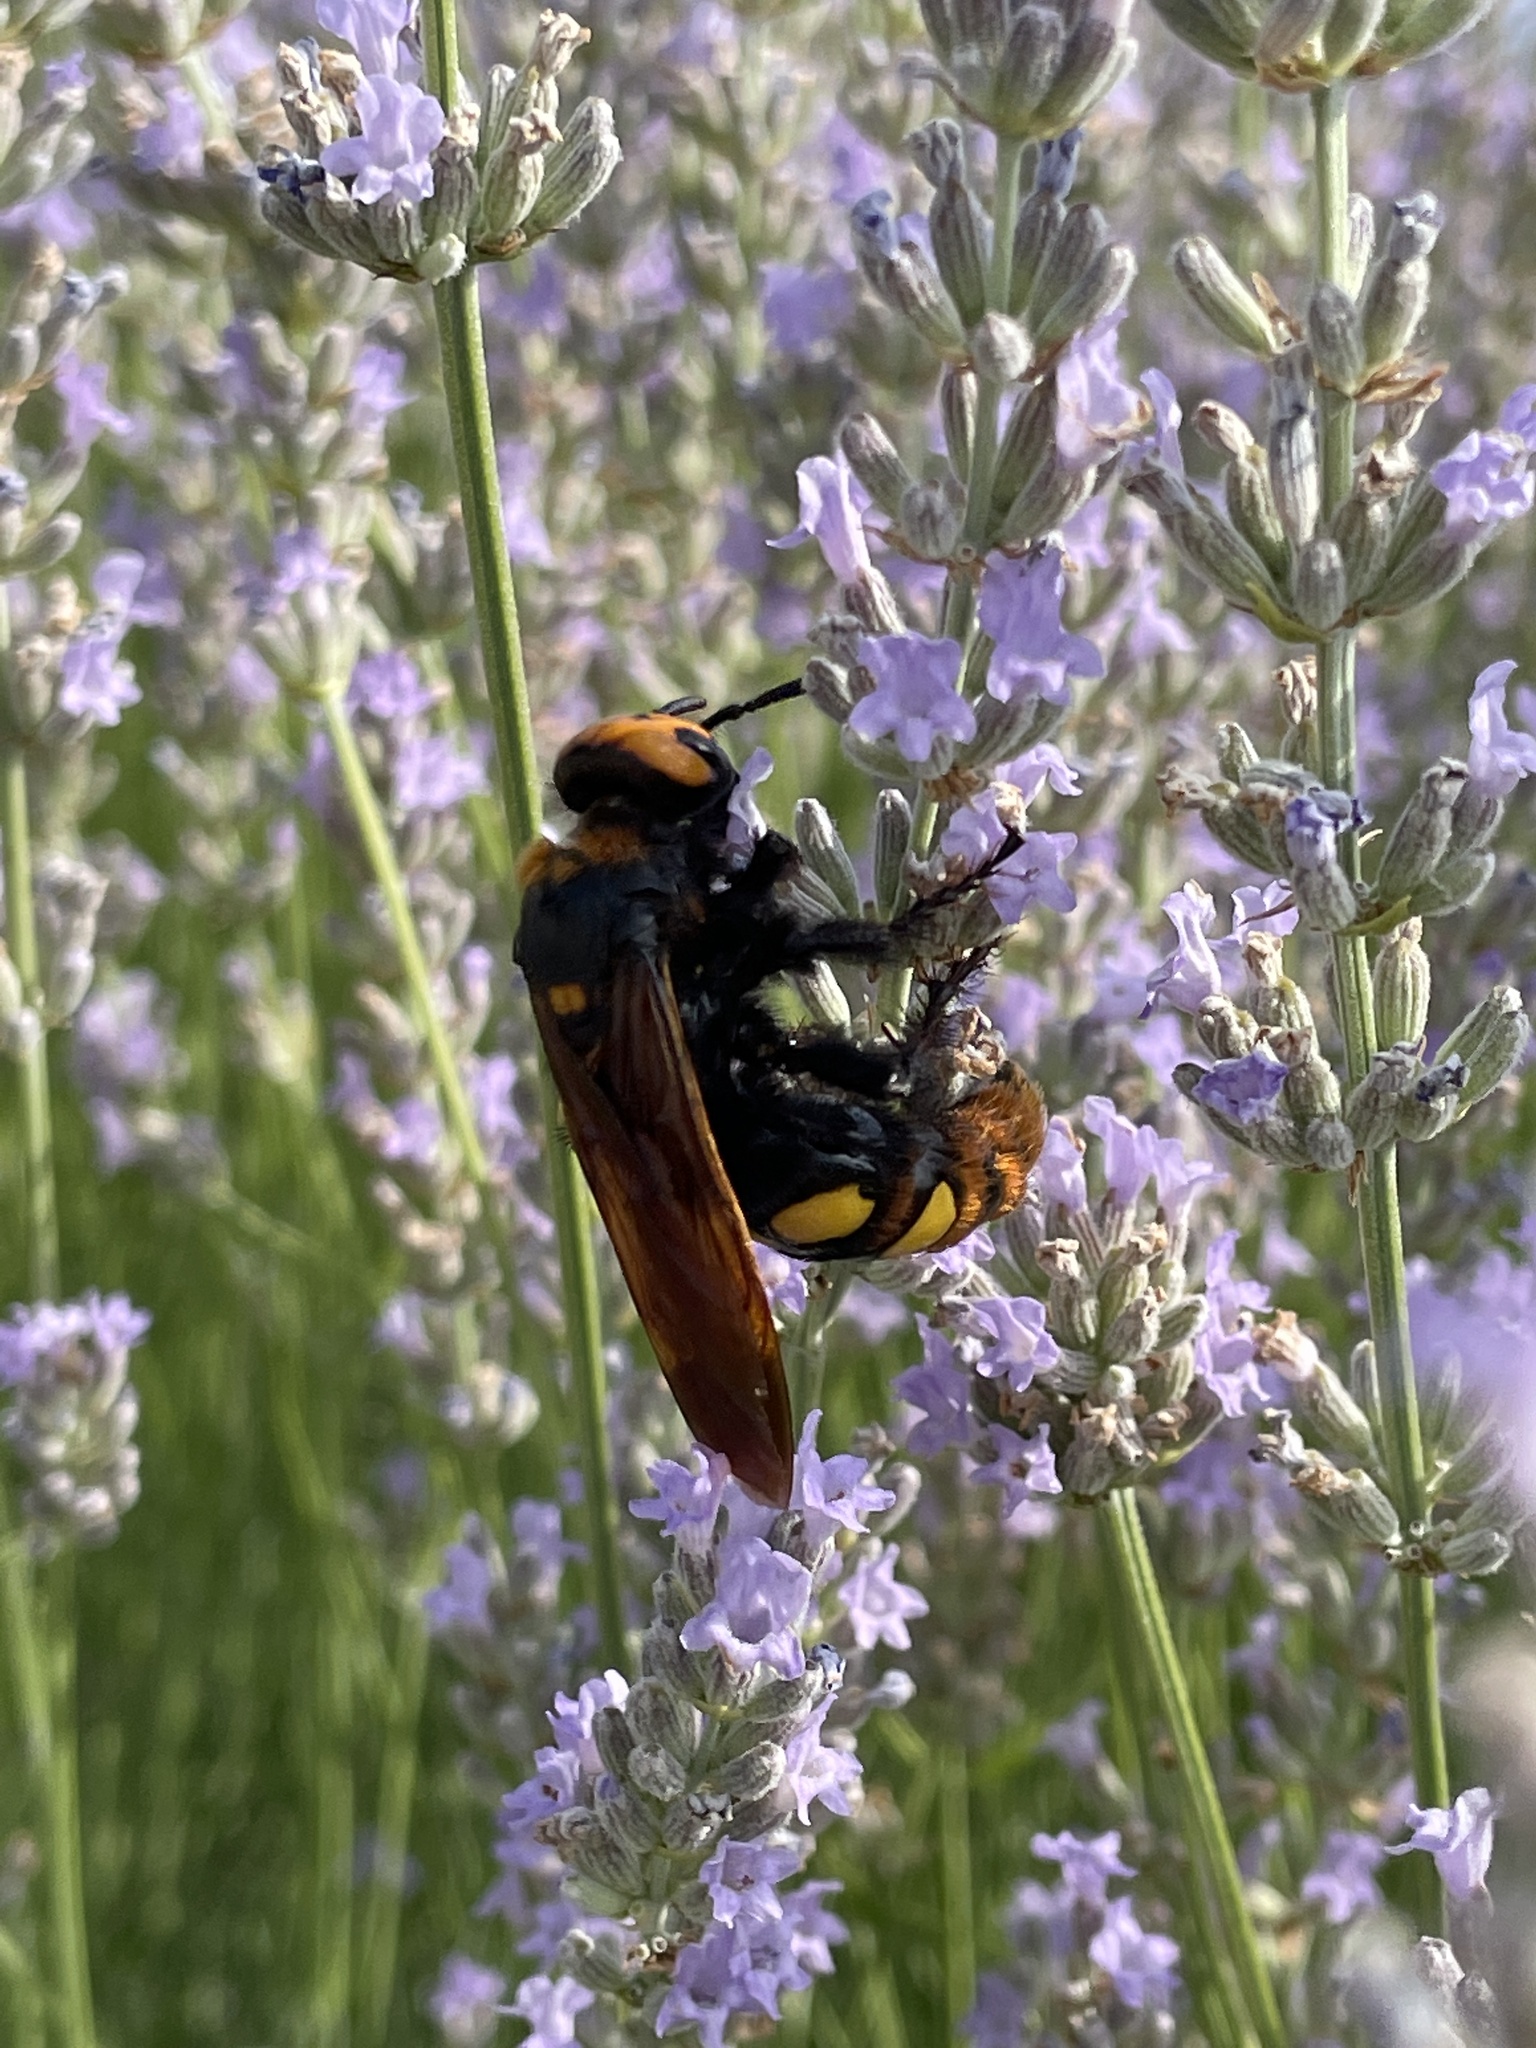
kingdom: Animalia
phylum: Arthropoda
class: Insecta
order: Hymenoptera
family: Scoliidae
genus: Megascolia
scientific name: Megascolia maculata
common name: Mammoth wasp
